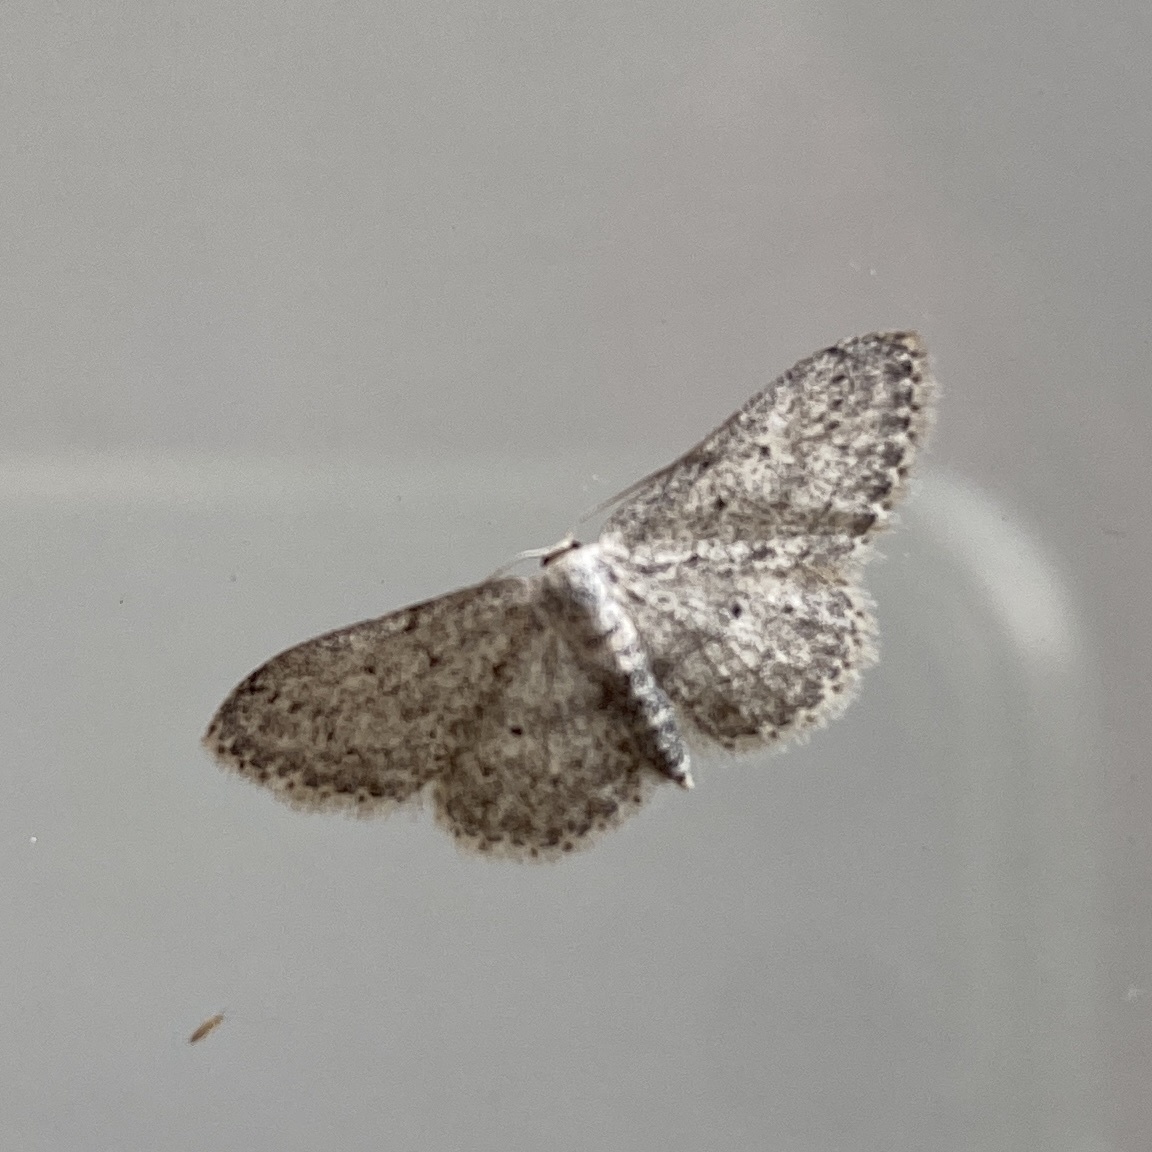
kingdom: Animalia
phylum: Arthropoda
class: Insecta
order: Lepidoptera
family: Geometridae
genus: Idaea
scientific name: Idaea seriata
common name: Small dusty wave
